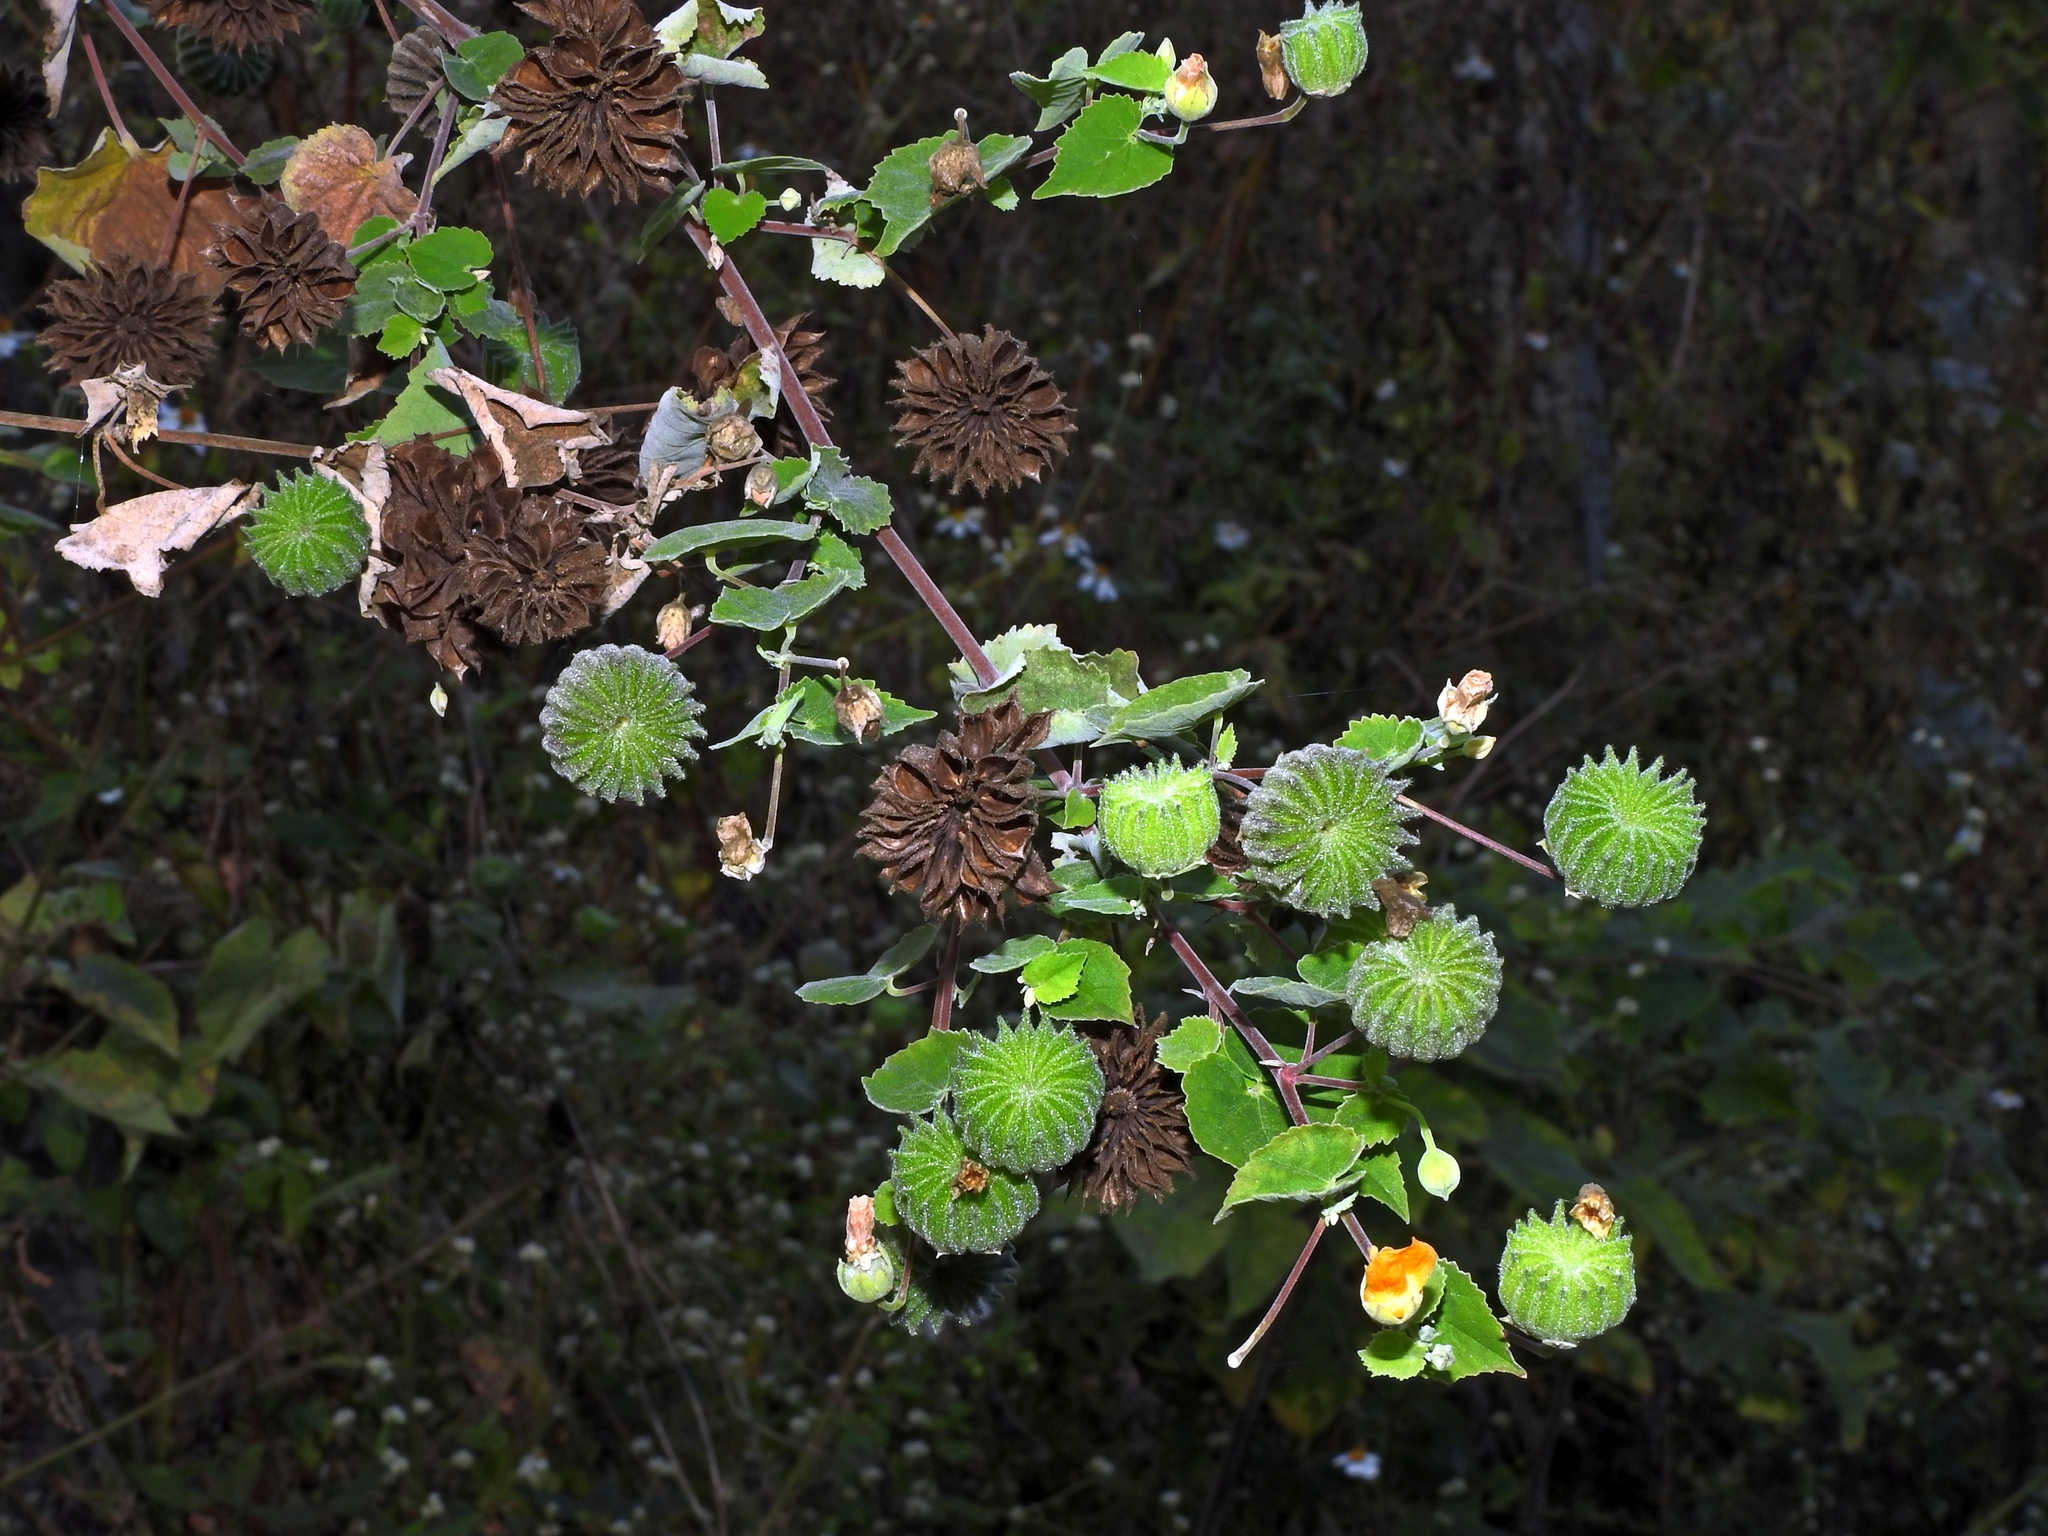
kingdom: Plantae
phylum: Tracheophyta
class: Magnoliopsida
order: Malvales
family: Malvaceae
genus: Abutilon
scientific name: Abutilon indicum
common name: Indian abutilon
